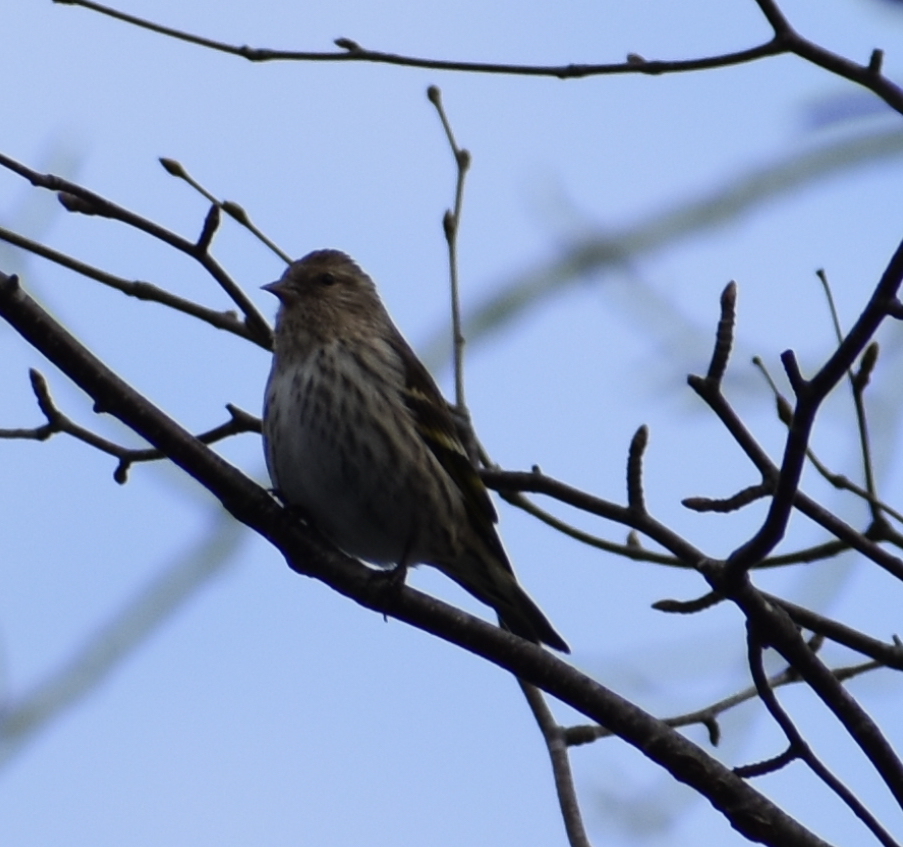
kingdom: Animalia
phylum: Chordata
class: Aves
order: Passeriformes
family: Fringillidae
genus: Spinus
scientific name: Spinus pinus
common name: Pine siskin
